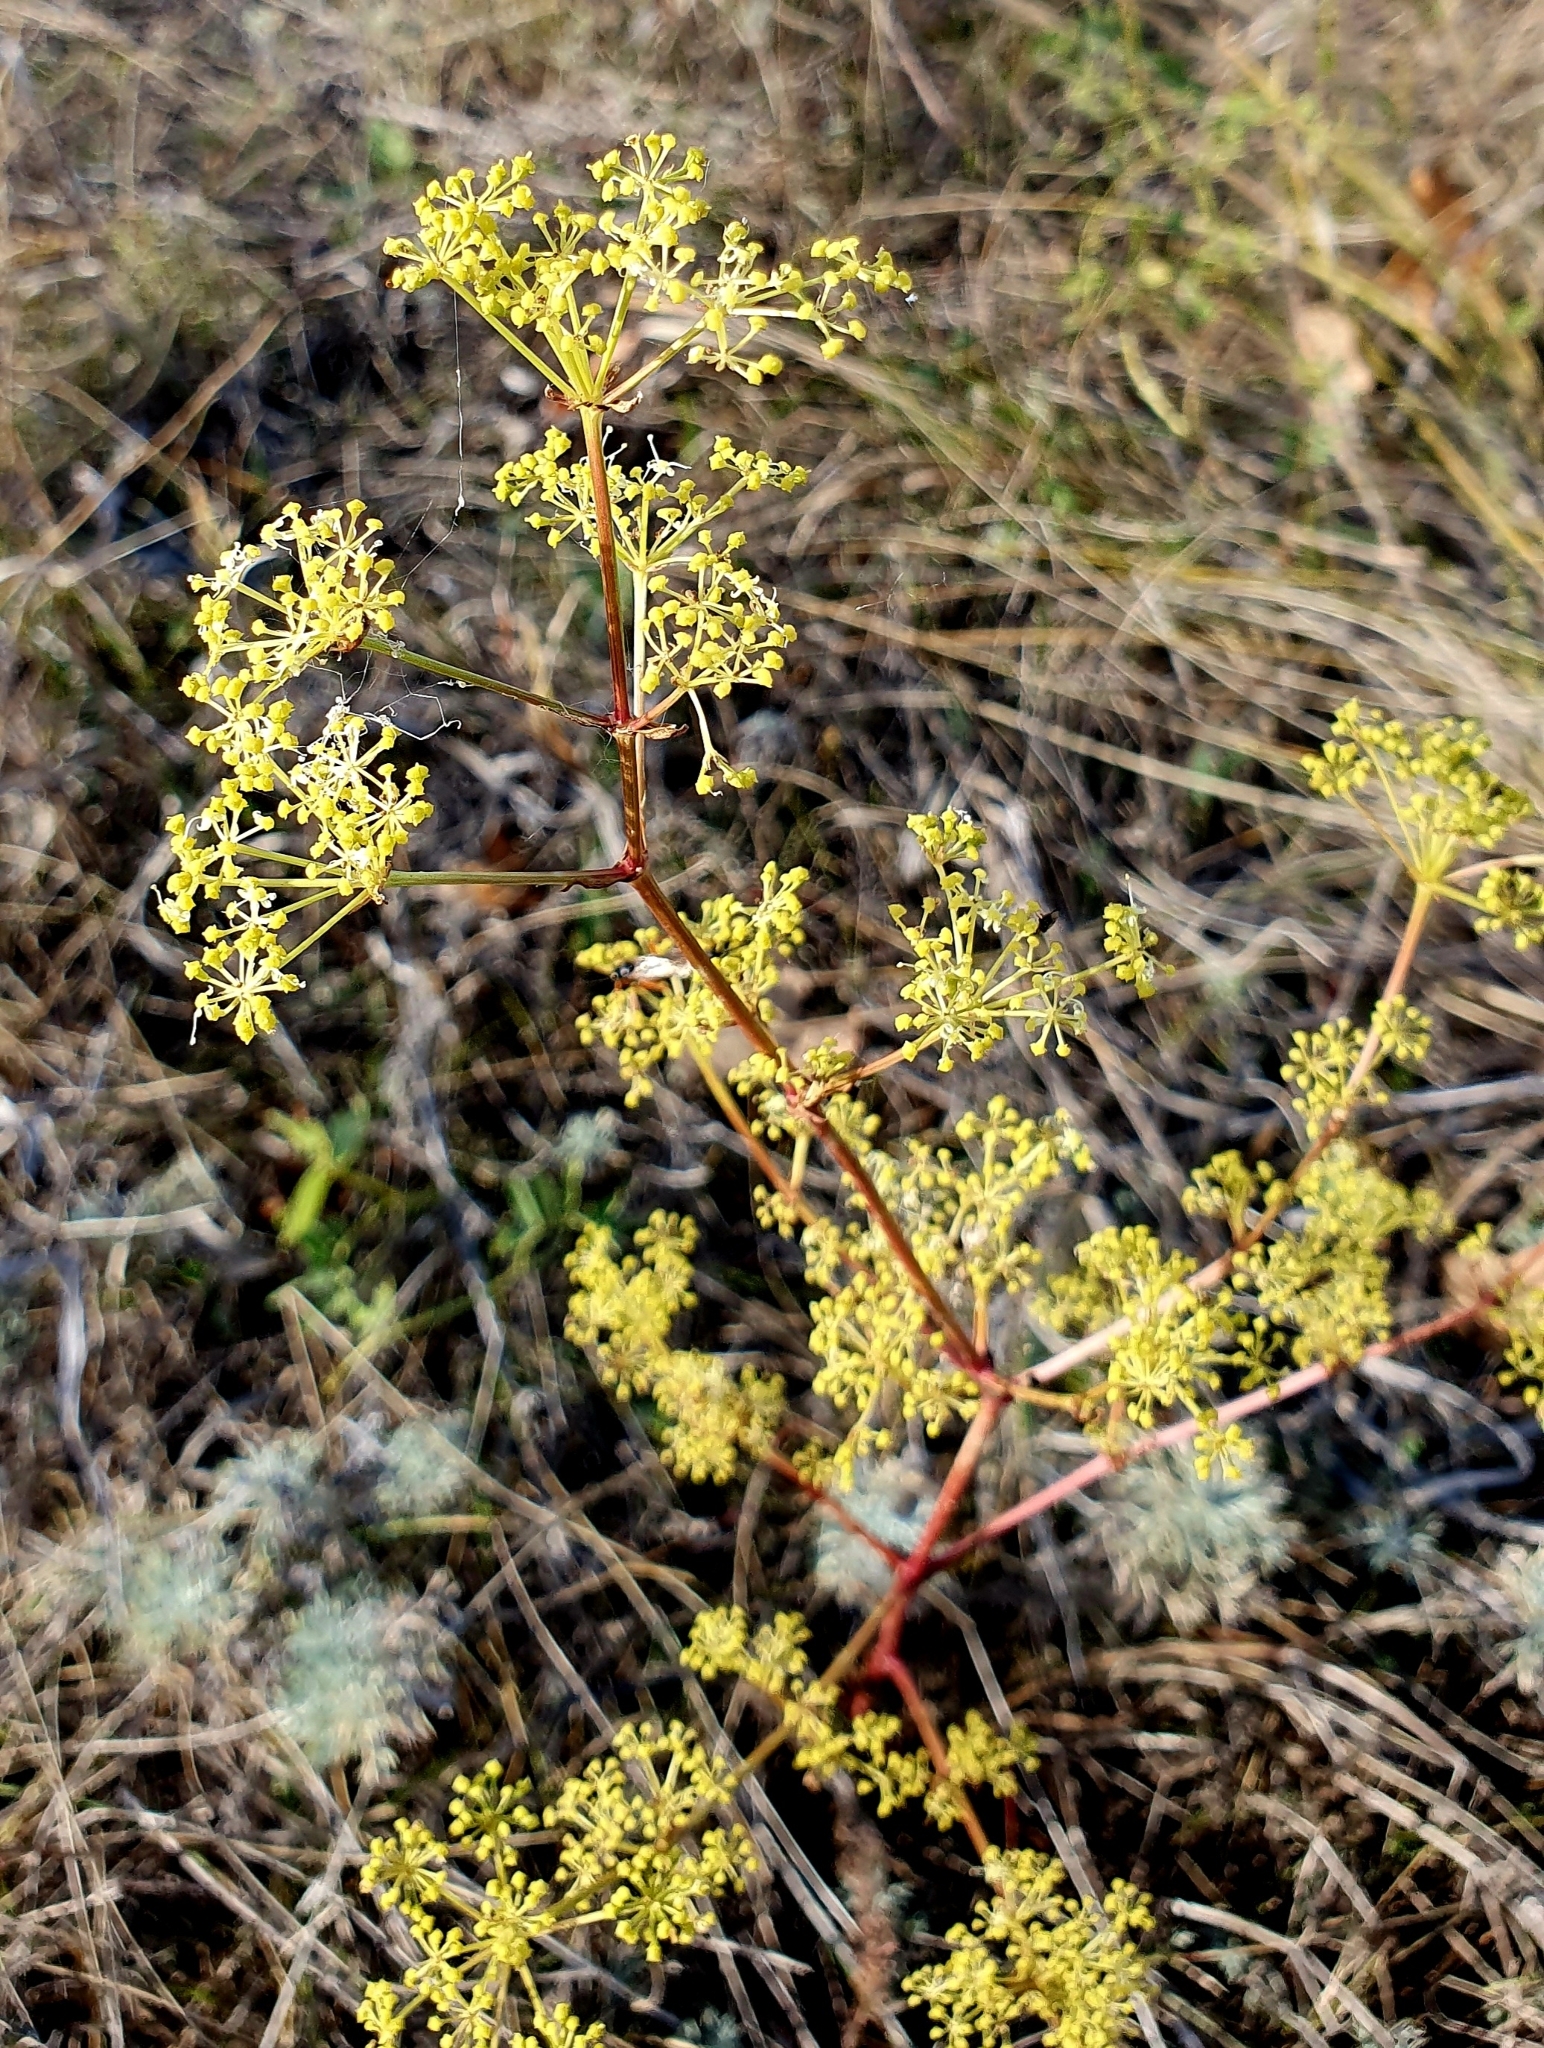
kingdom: Plantae
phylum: Tracheophyta
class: Magnoliopsida
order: Apiales
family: Apiaceae
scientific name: Apiaceae
